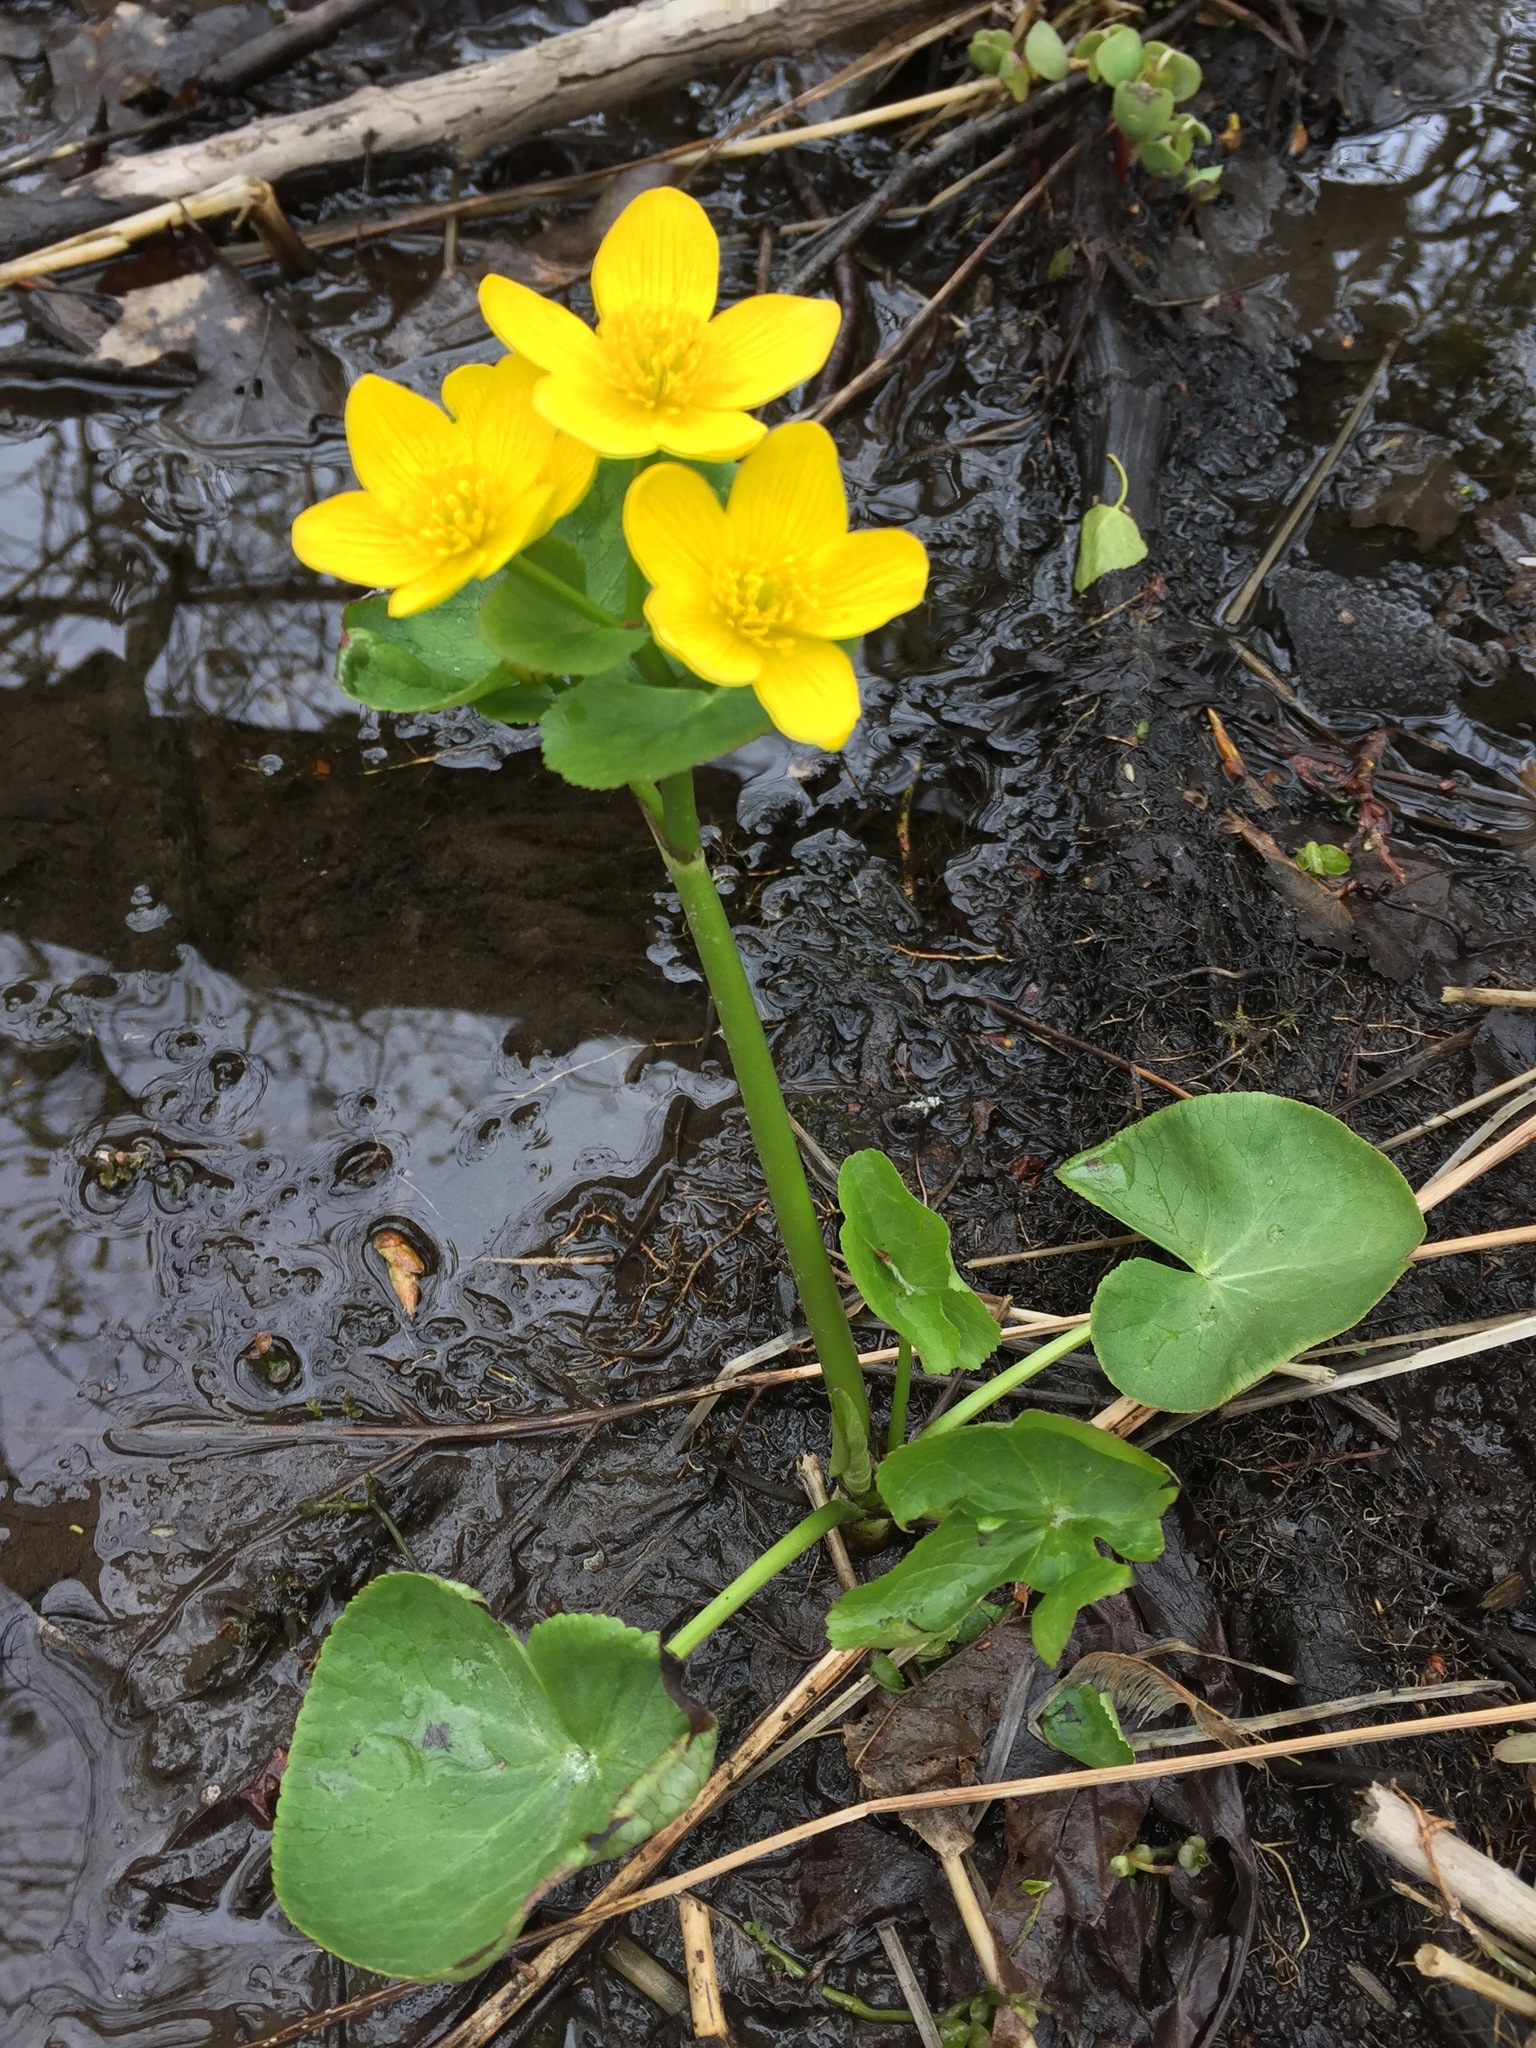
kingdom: Plantae
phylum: Tracheophyta
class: Magnoliopsida
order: Ranunculales
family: Ranunculaceae
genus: Caltha
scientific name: Caltha palustris
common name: Marsh marigold
